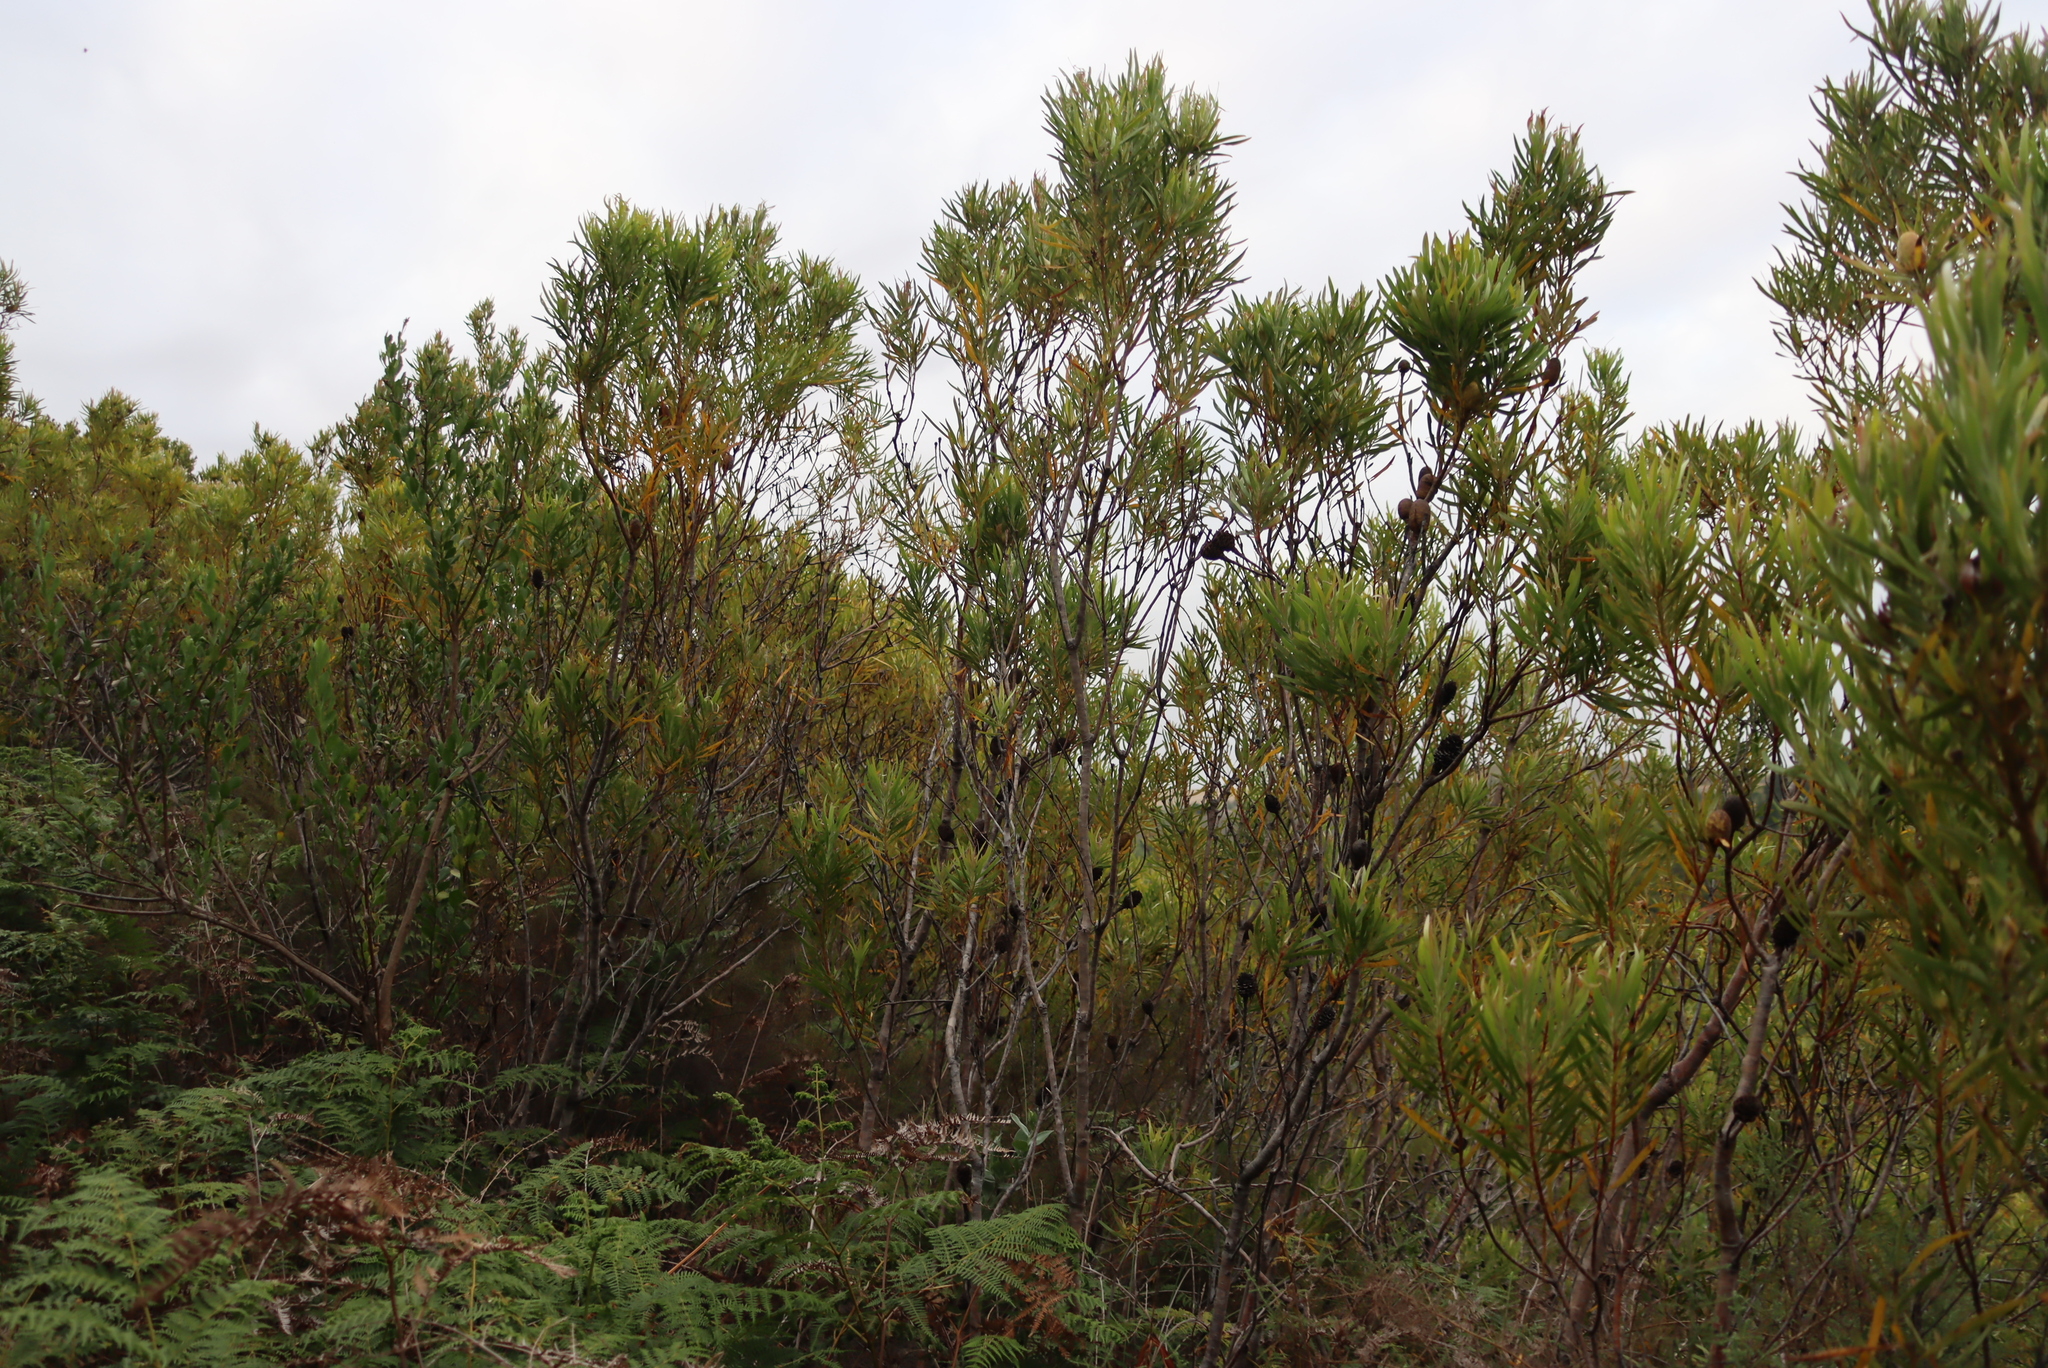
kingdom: Plantae
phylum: Tracheophyta
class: Magnoliopsida
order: Proteales
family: Proteaceae
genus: Leucadendron
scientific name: Leucadendron eucalyptifolium
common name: Gum-leaved conebush
